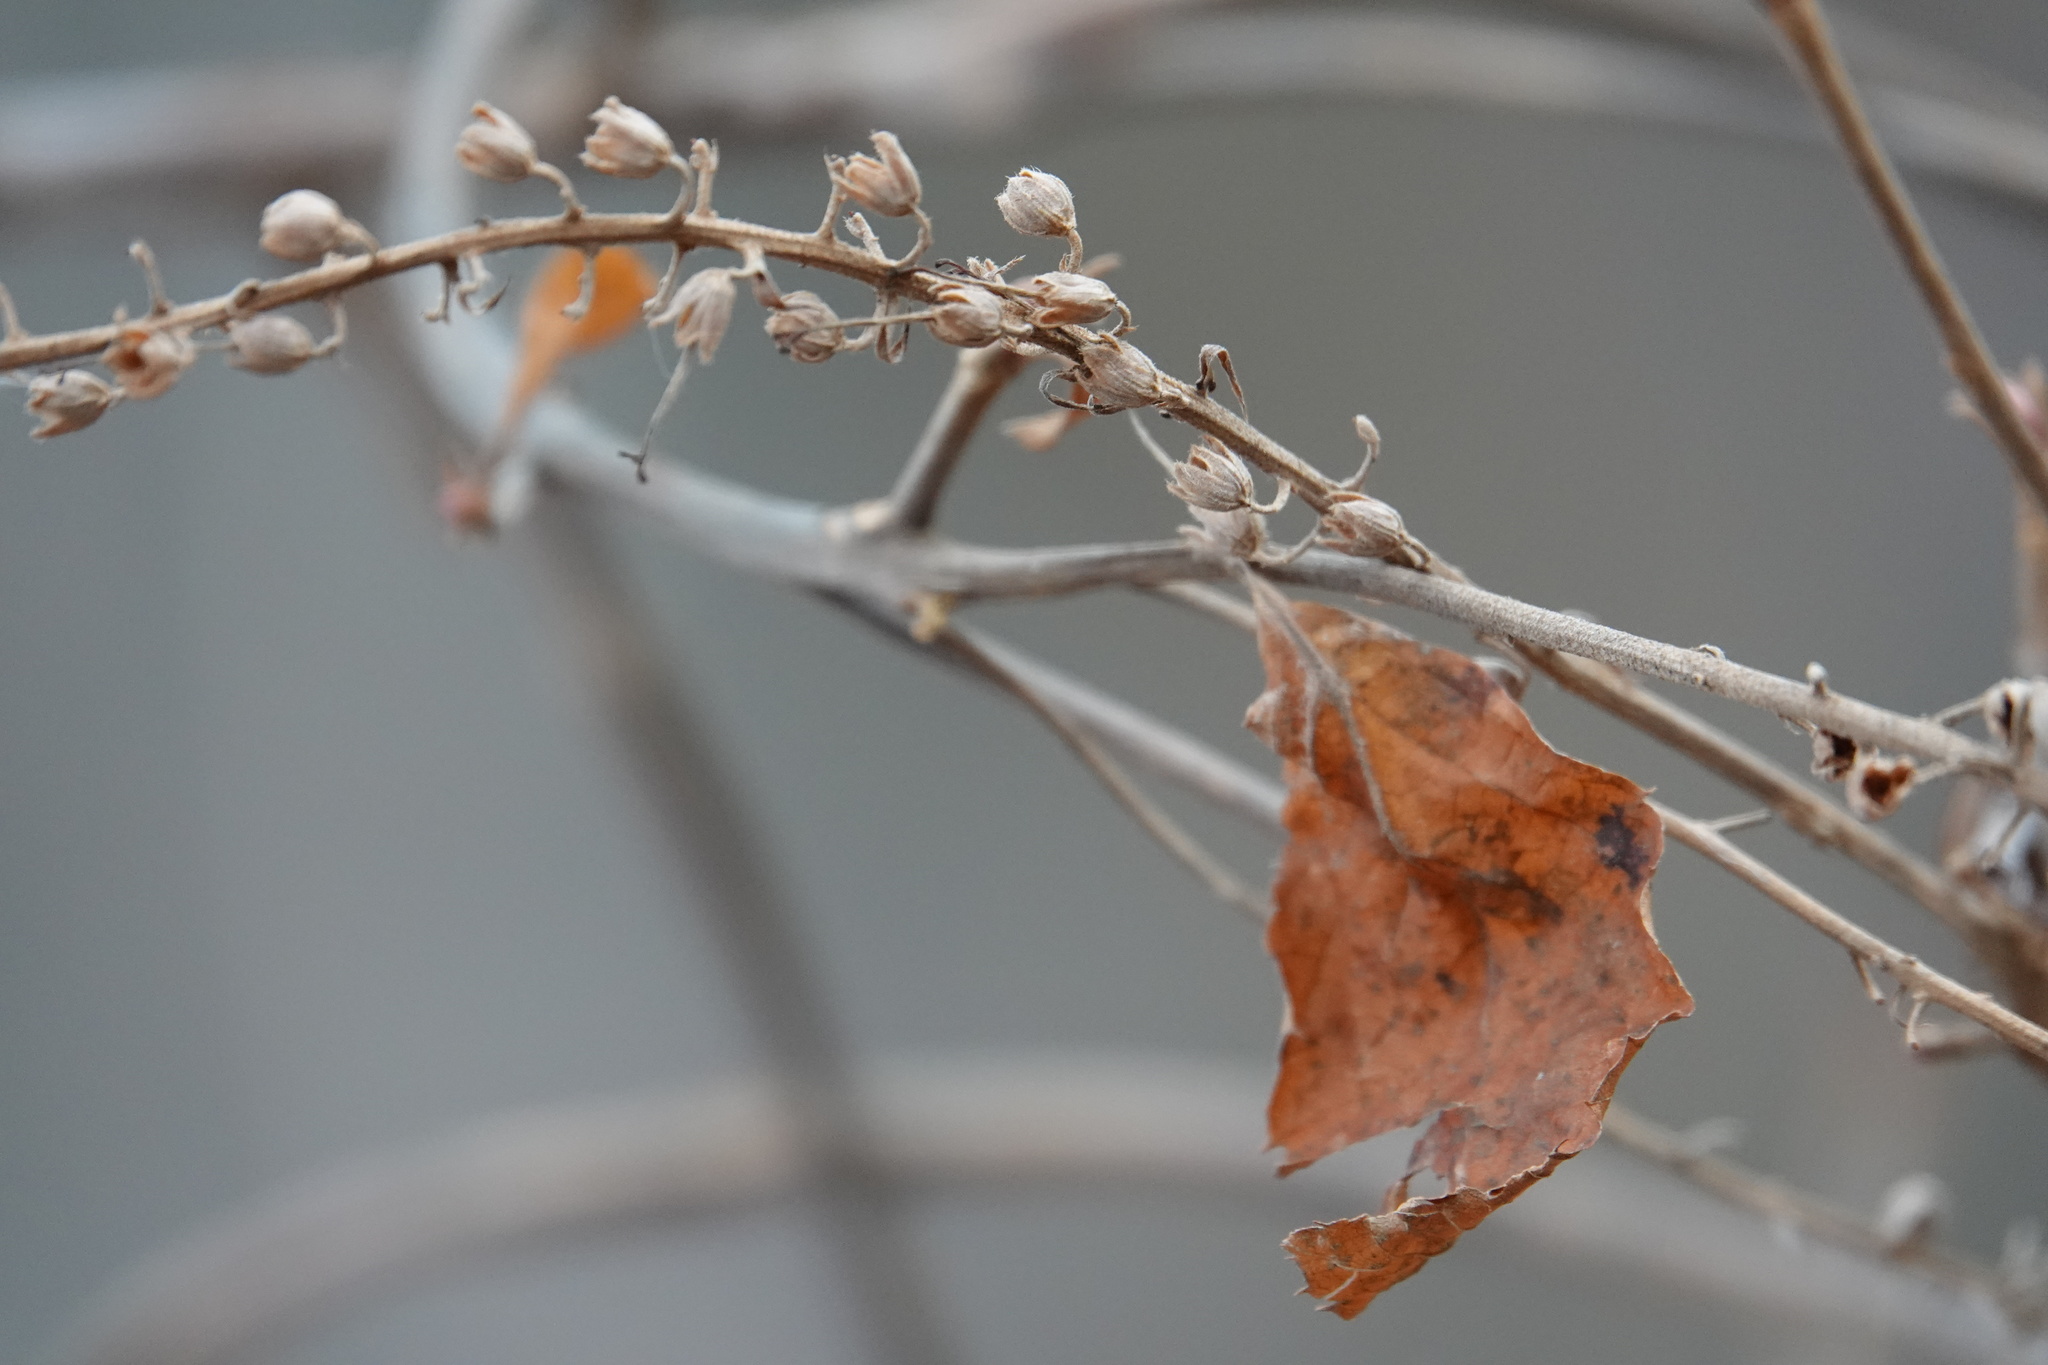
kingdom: Plantae
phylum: Tracheophyta
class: Magnoliopsida
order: Ericales
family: Clethraceae
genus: Clethra
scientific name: Clethra alnifolia
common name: Sweet pepperbush
